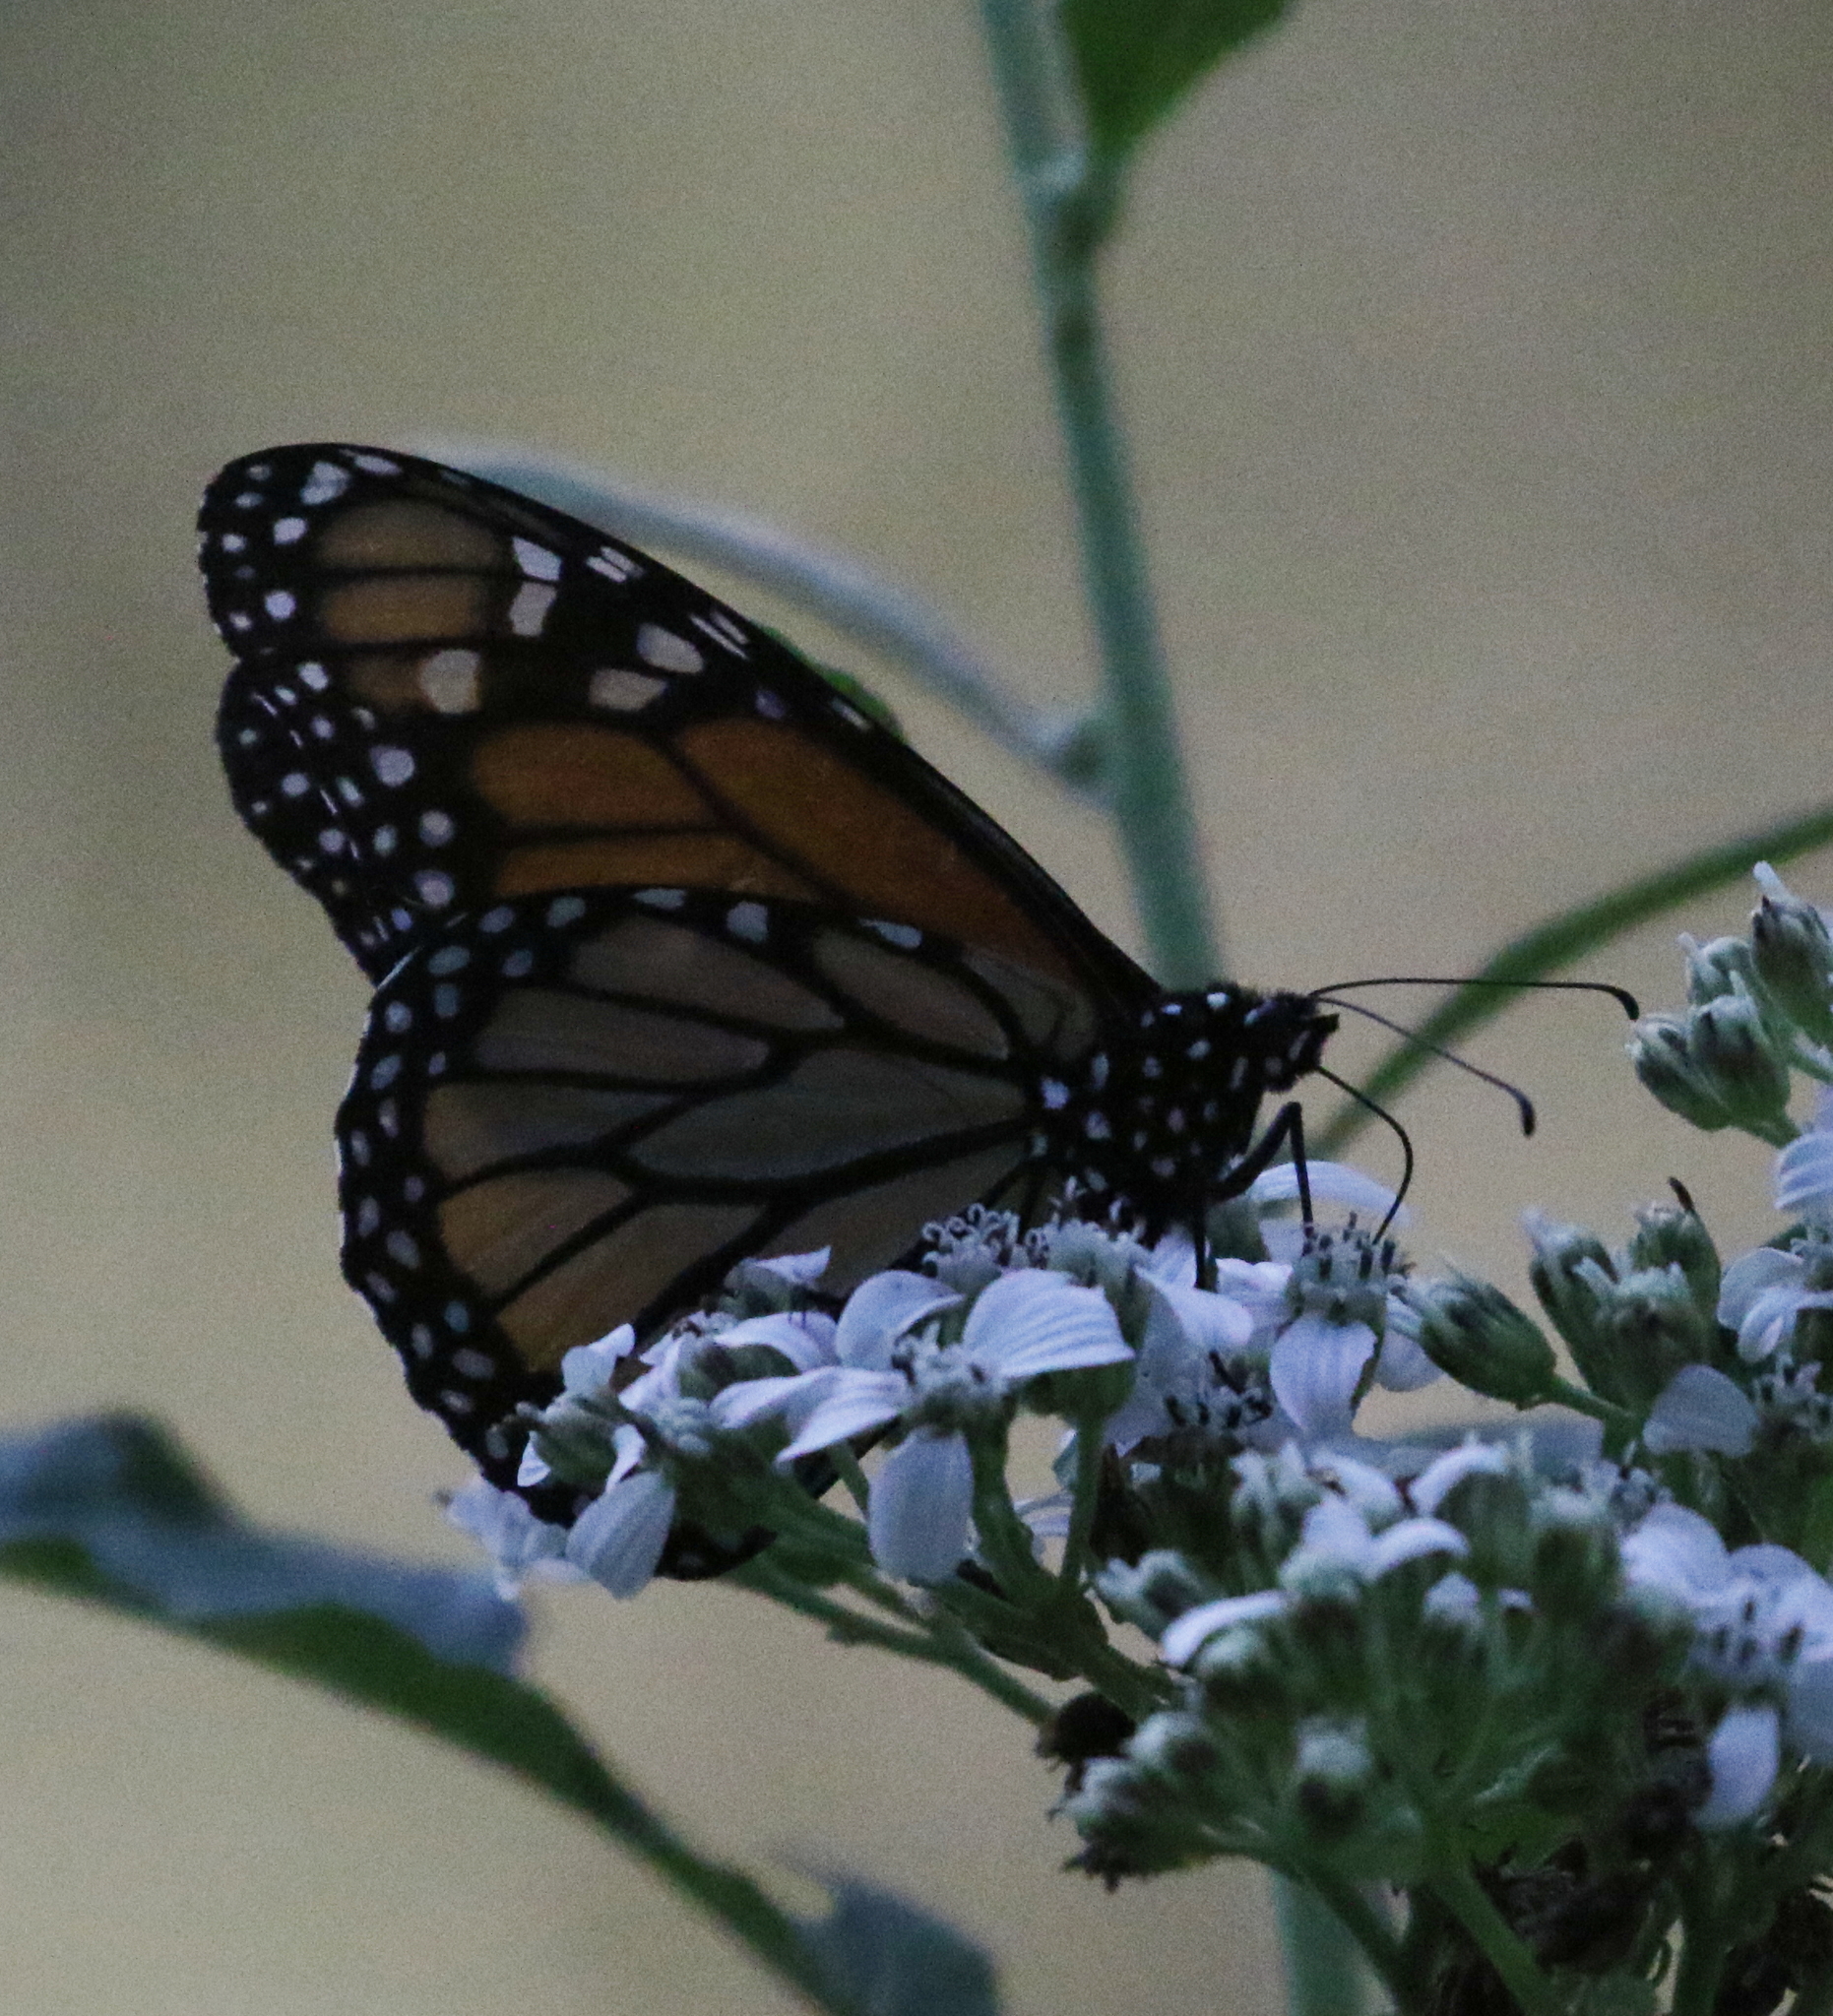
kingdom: Animalia
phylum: Arthropoda
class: Insecta
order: Lepidoptera
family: Nymphalidae
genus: Danaus
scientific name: Danaus plexippus
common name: Monarch
